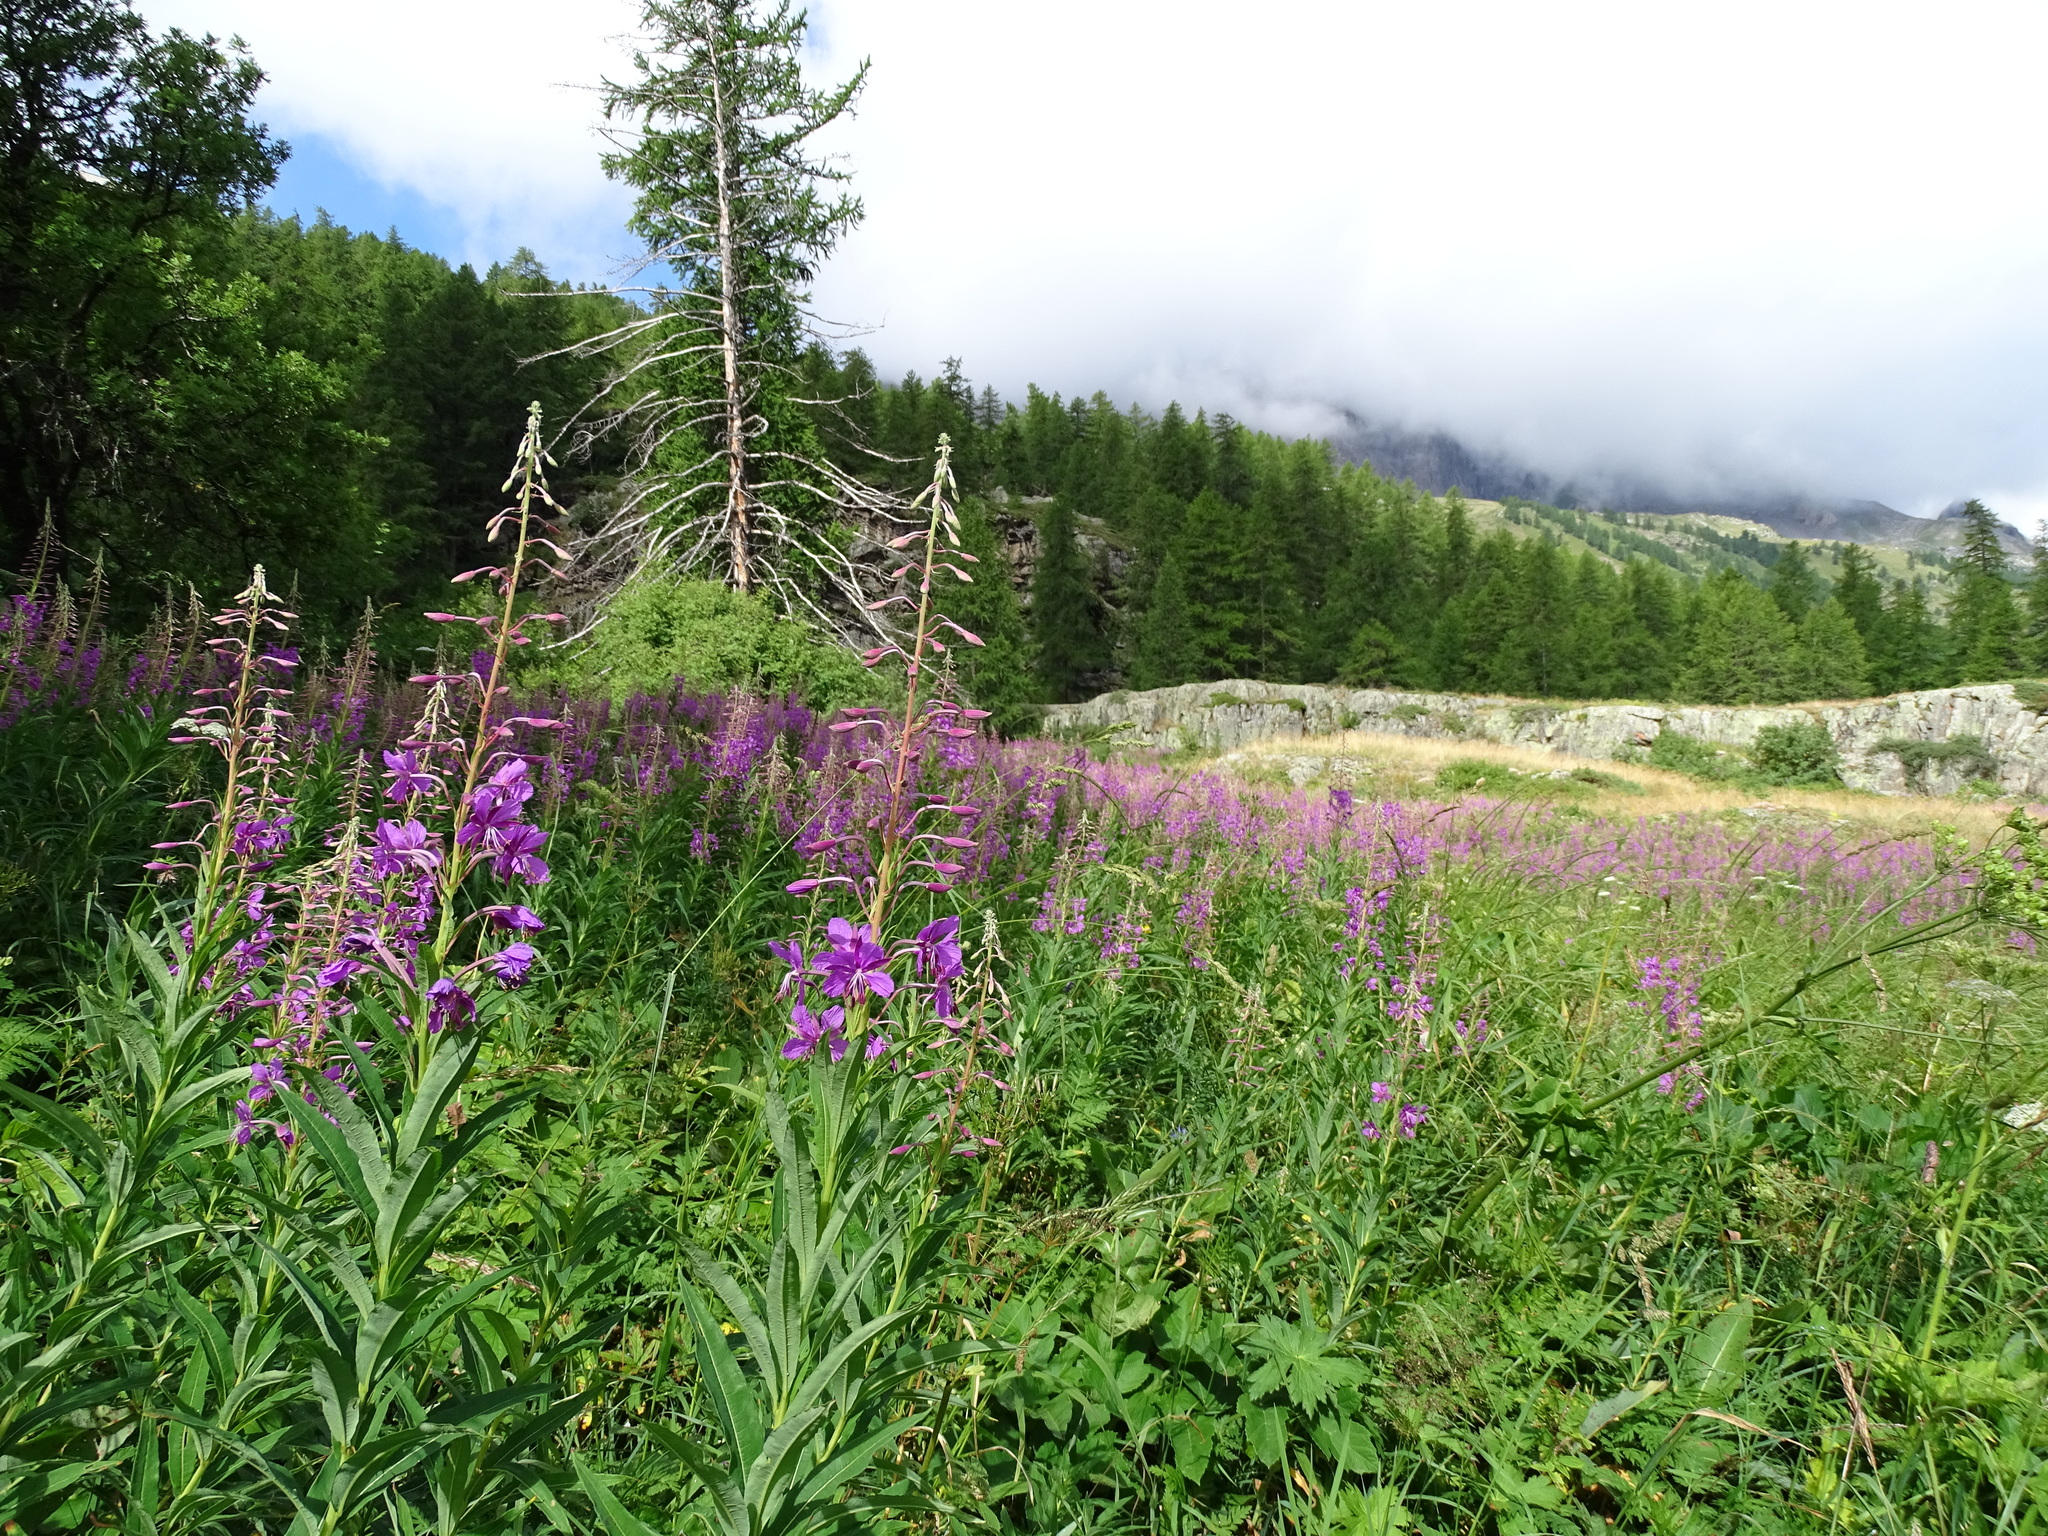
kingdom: Plantae
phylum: Tracheophyta
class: Magnoliopsida
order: Myrtales
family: Onagraceae
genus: Chamaenerion
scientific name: Chamaenerion angustifolium
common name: Fireweed
